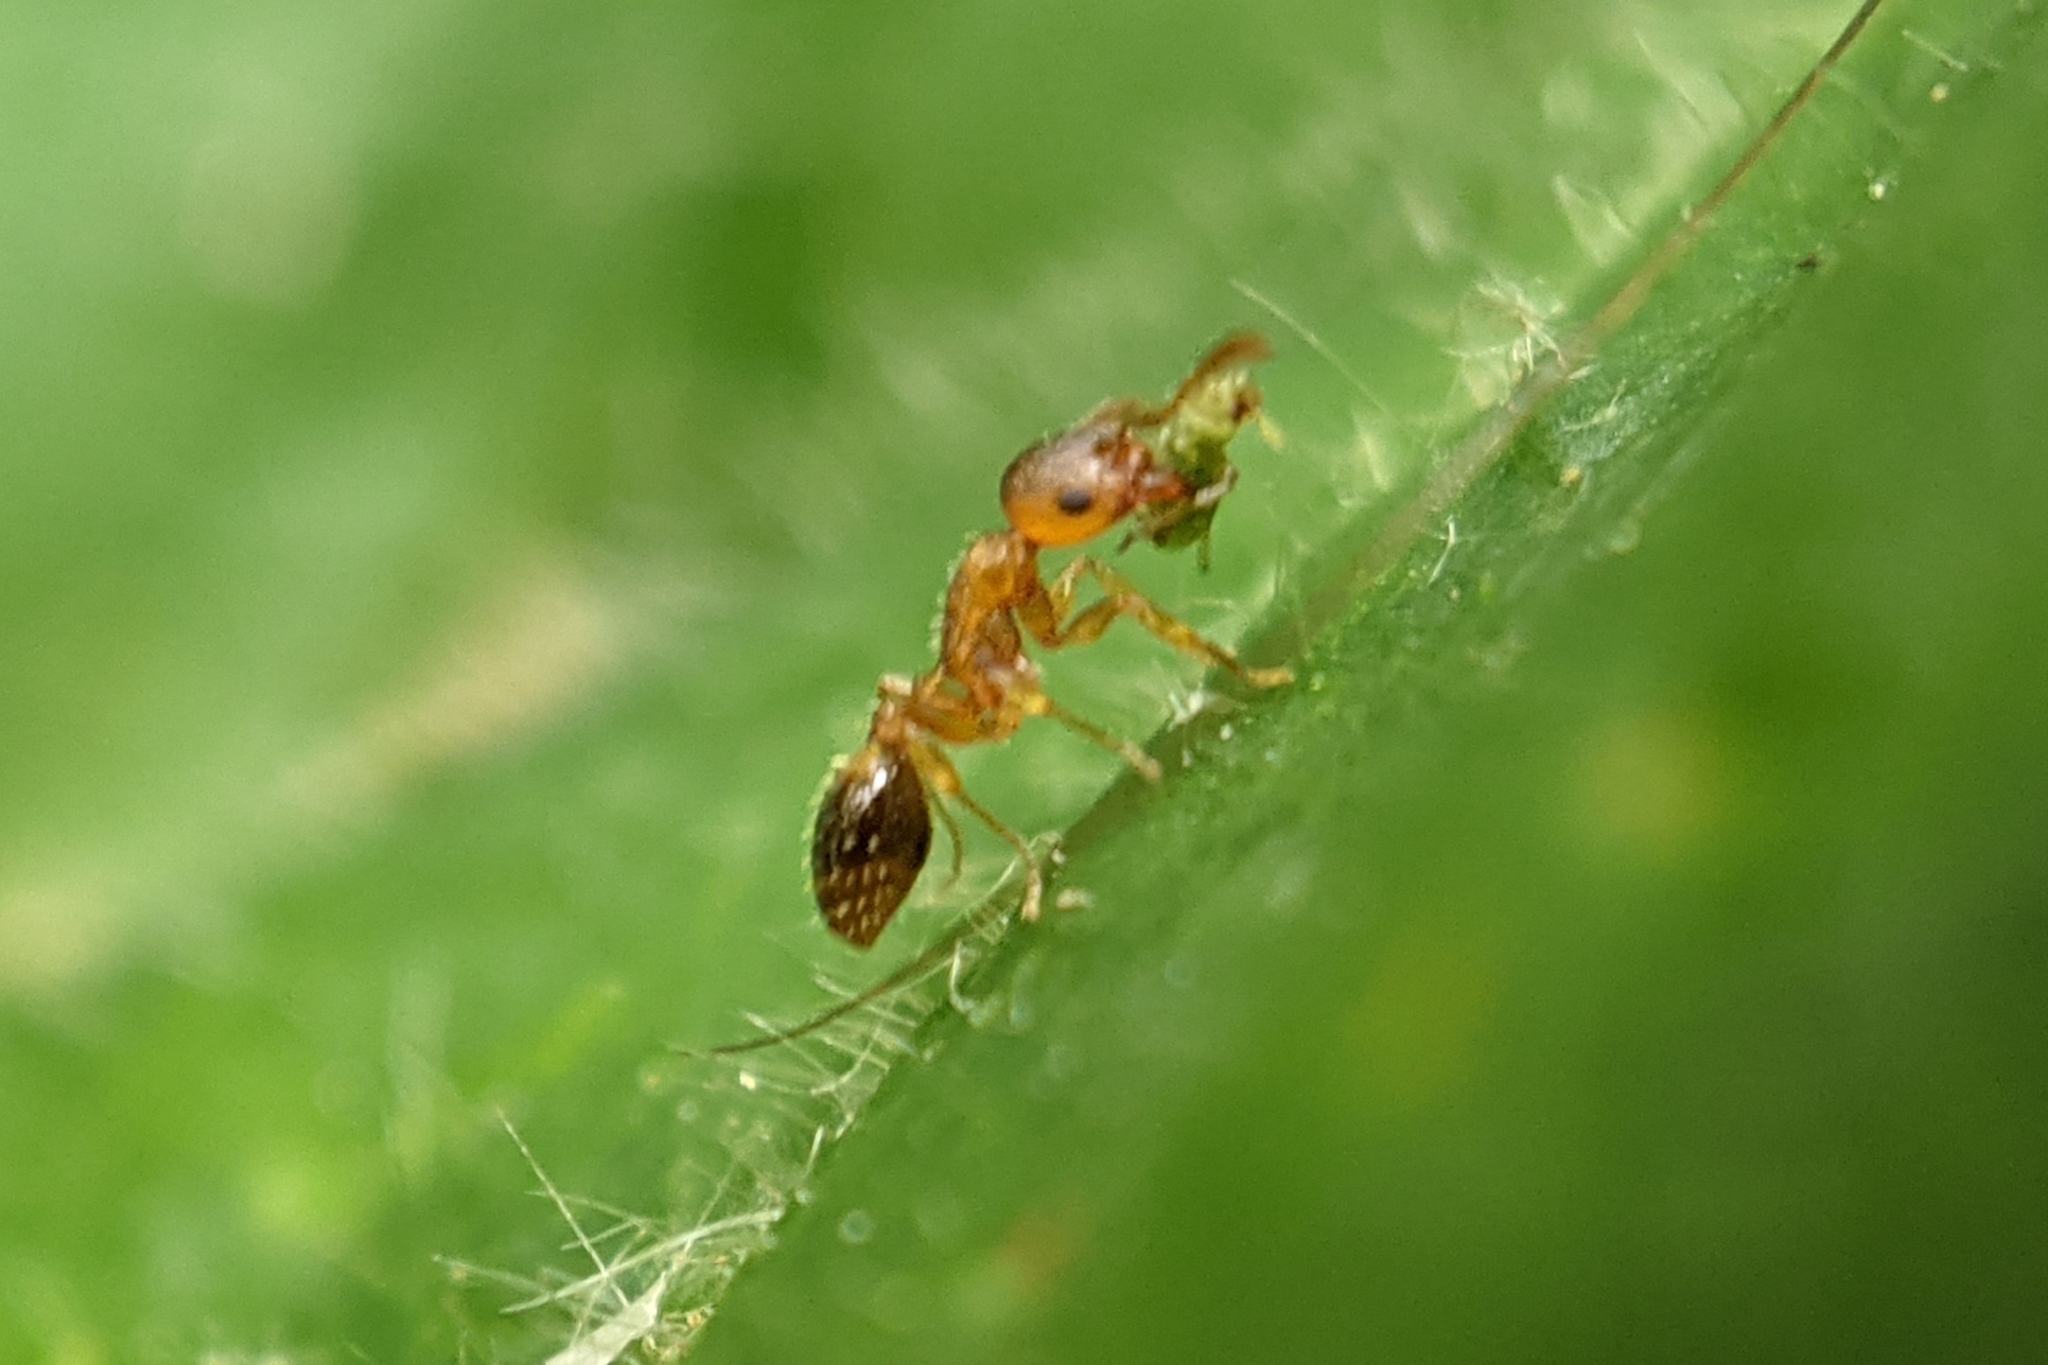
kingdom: Animalia
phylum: Arthropoda
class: Insecta
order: Hymenoptera
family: Formicidae
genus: Leptothorax
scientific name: Leptothorax nylanderi
